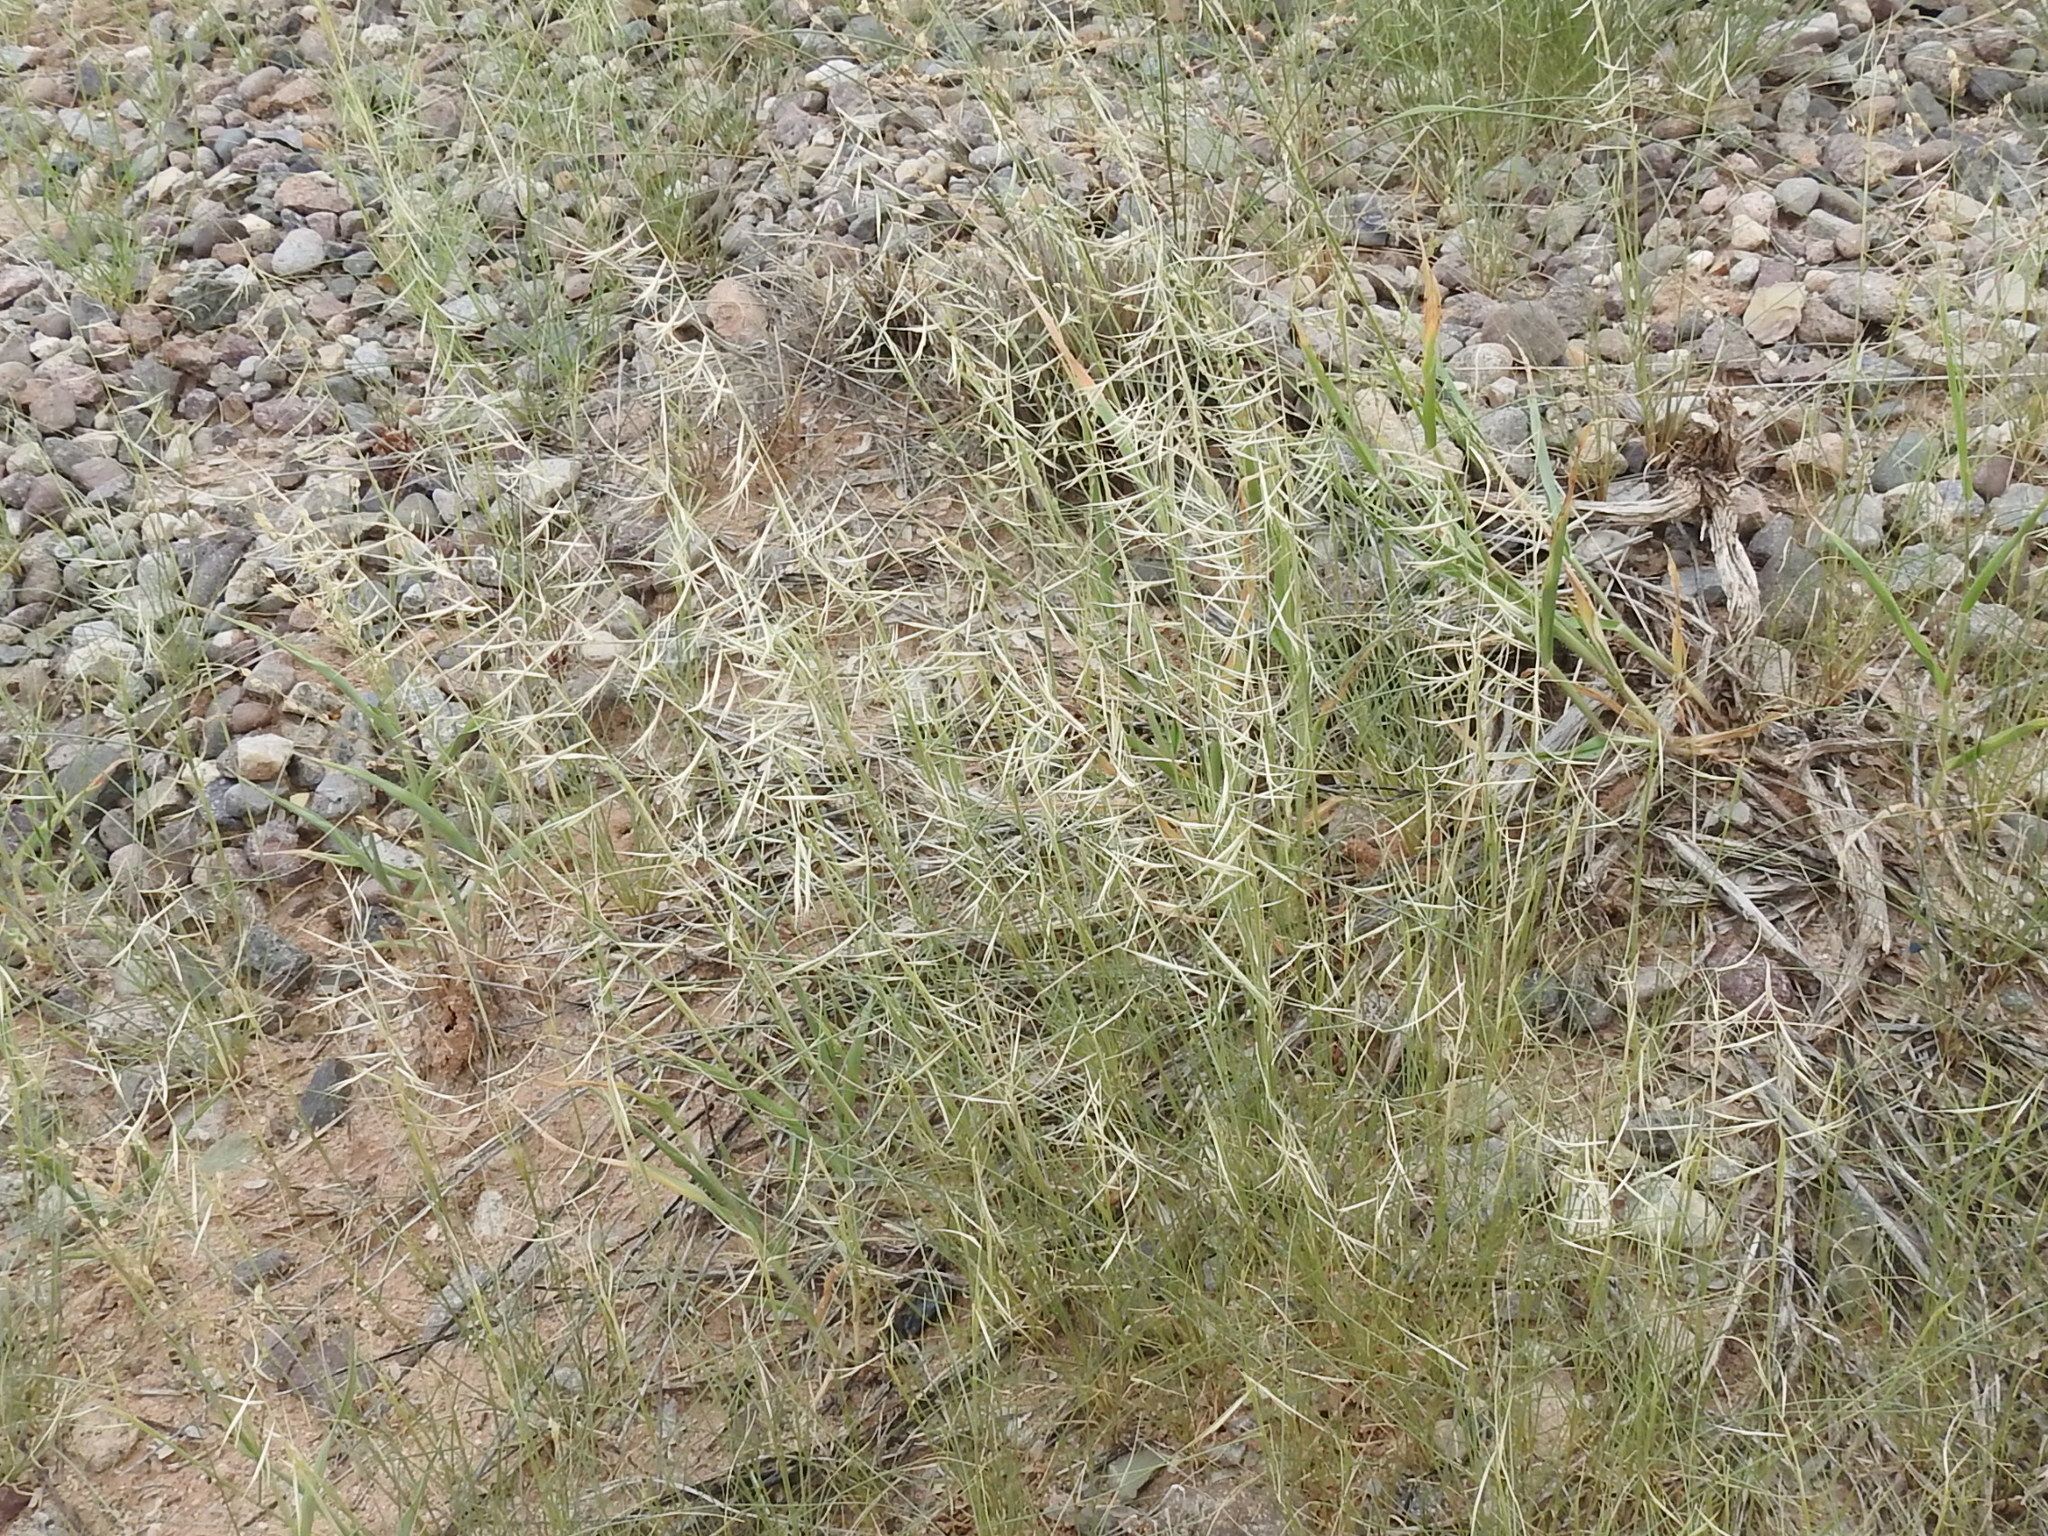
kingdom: Plantae
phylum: Tracheophyta
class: Liliopsida
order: Poales
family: Poaceae
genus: Bouteloua
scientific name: Bouteloua aristidoides
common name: Needle grama
